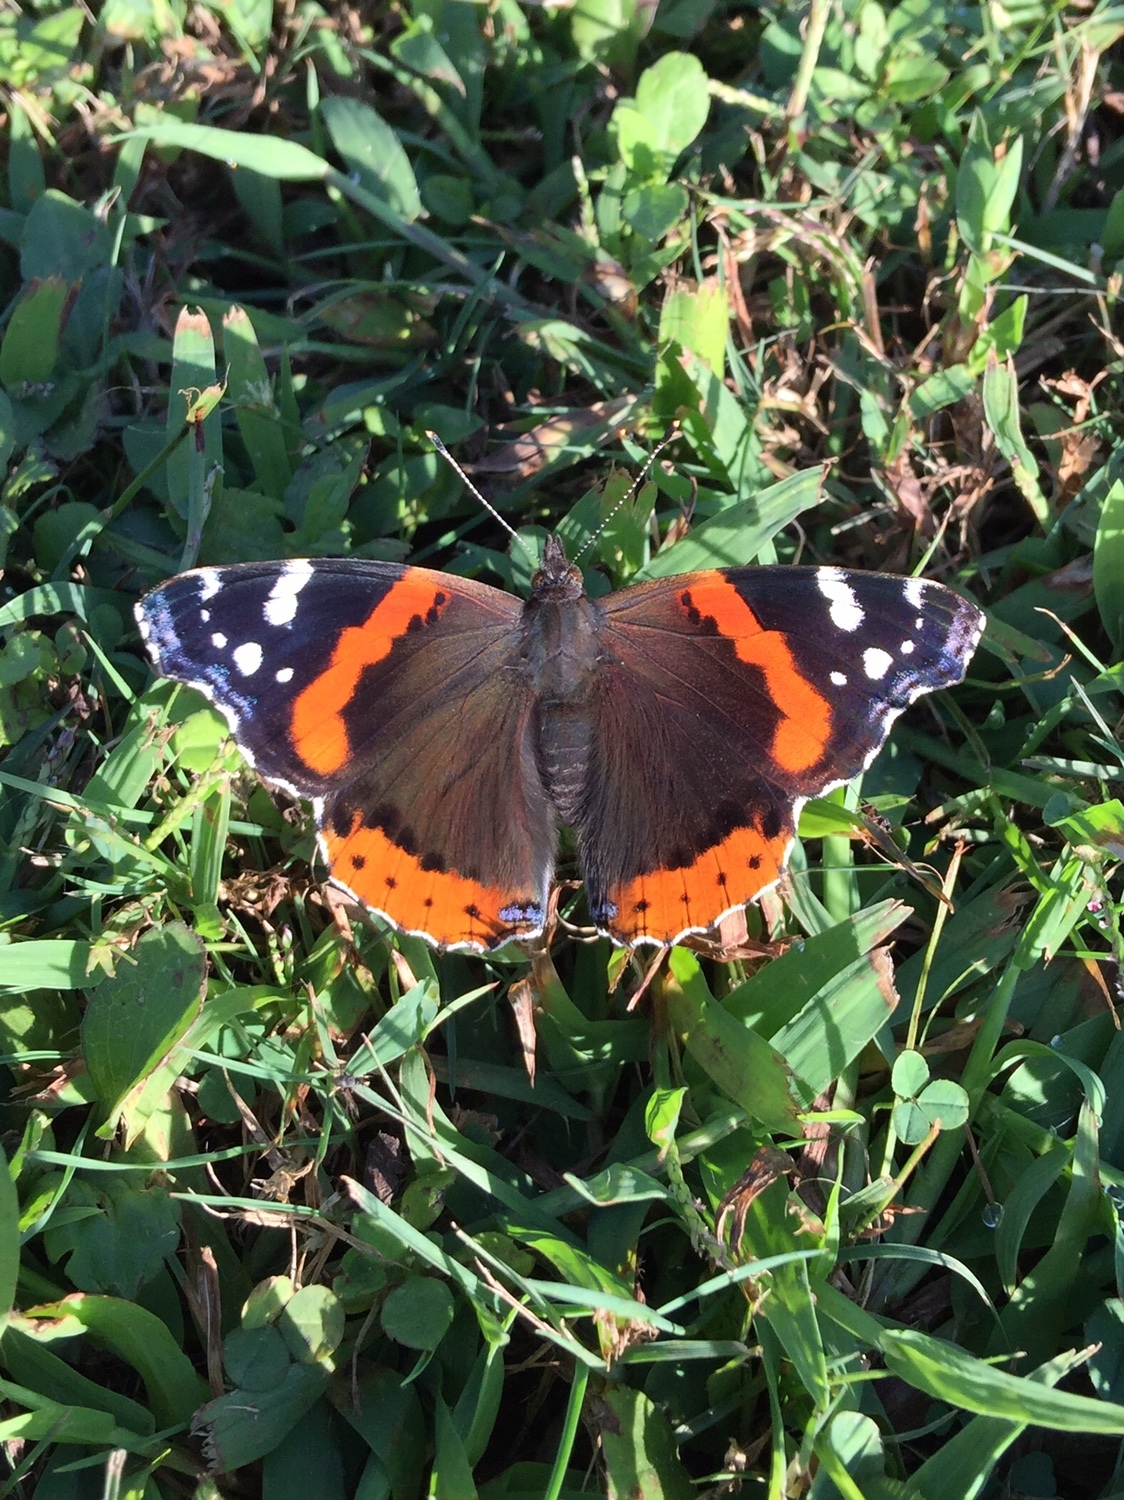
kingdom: Animalia
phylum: Arthropoda
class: Insecta
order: Lepidoptera
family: Nymphalidae
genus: Vanessa
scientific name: Vanessa atalanta
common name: Red admiral
